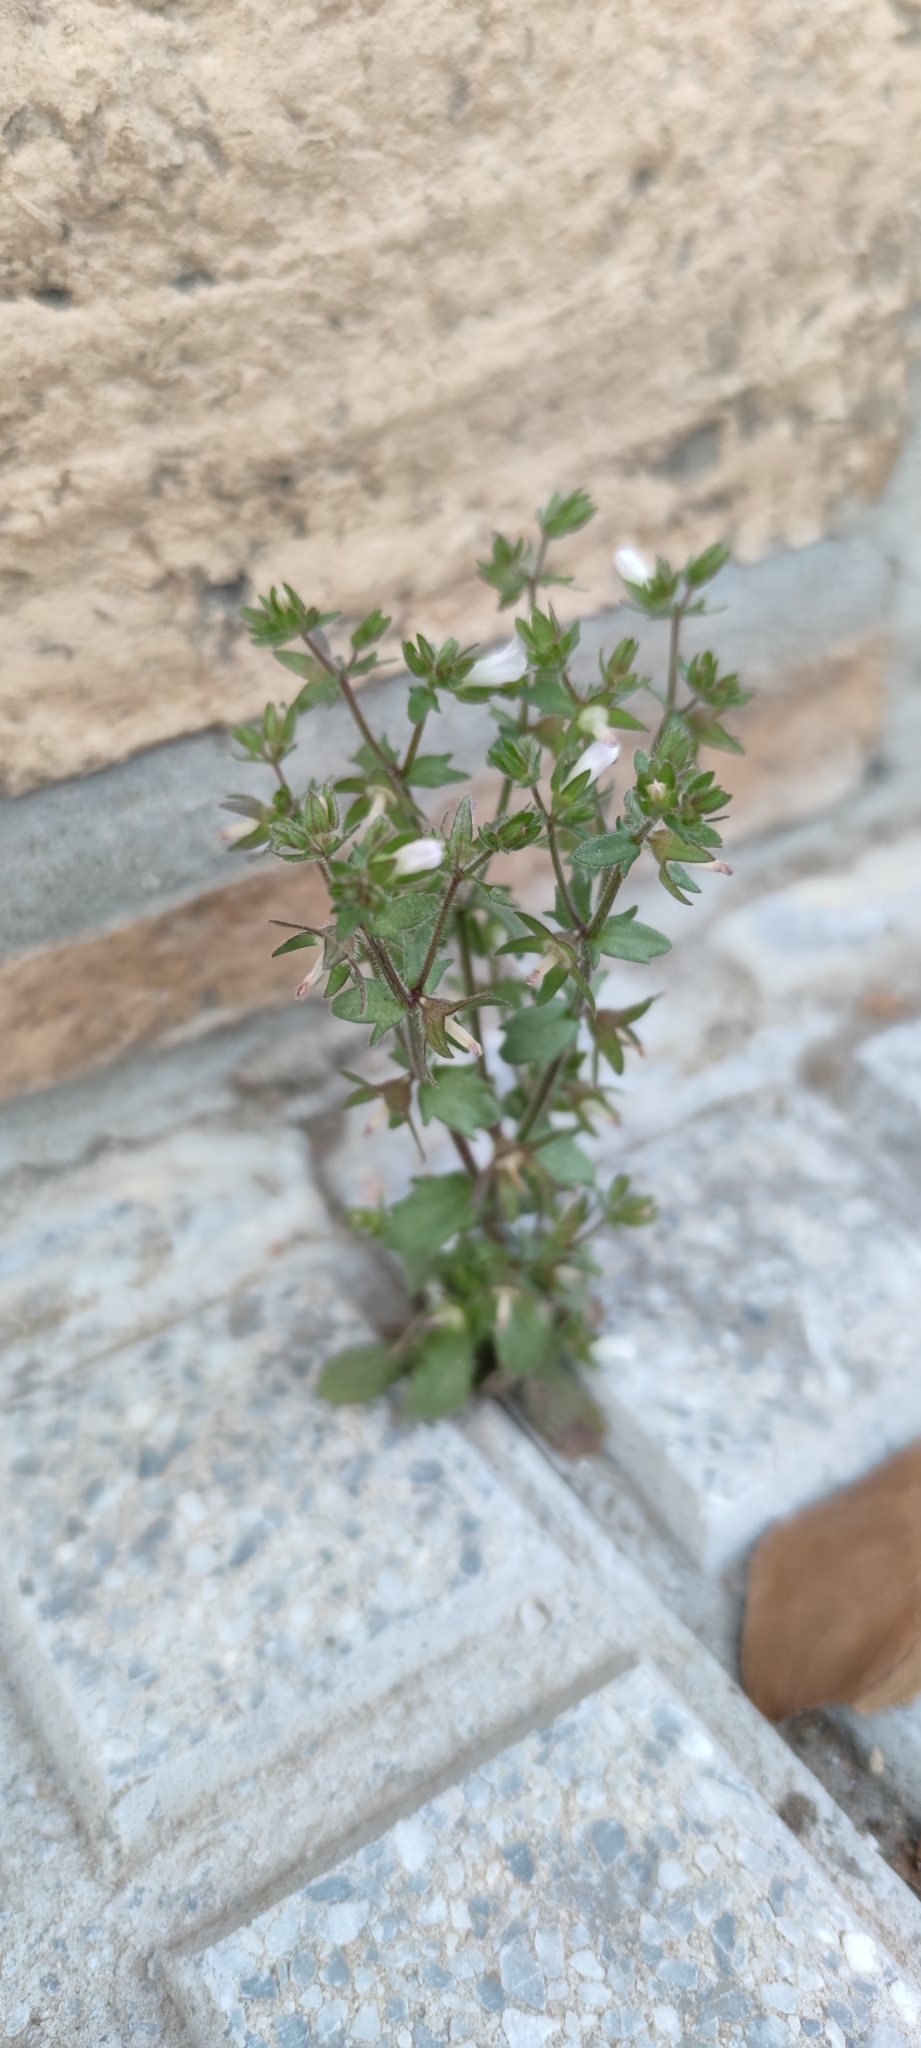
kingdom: Plantae
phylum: Tracheophyta
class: Magnoliopsida
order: Asterales
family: Campanulaceae
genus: Campanula
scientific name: Campanula erinus
